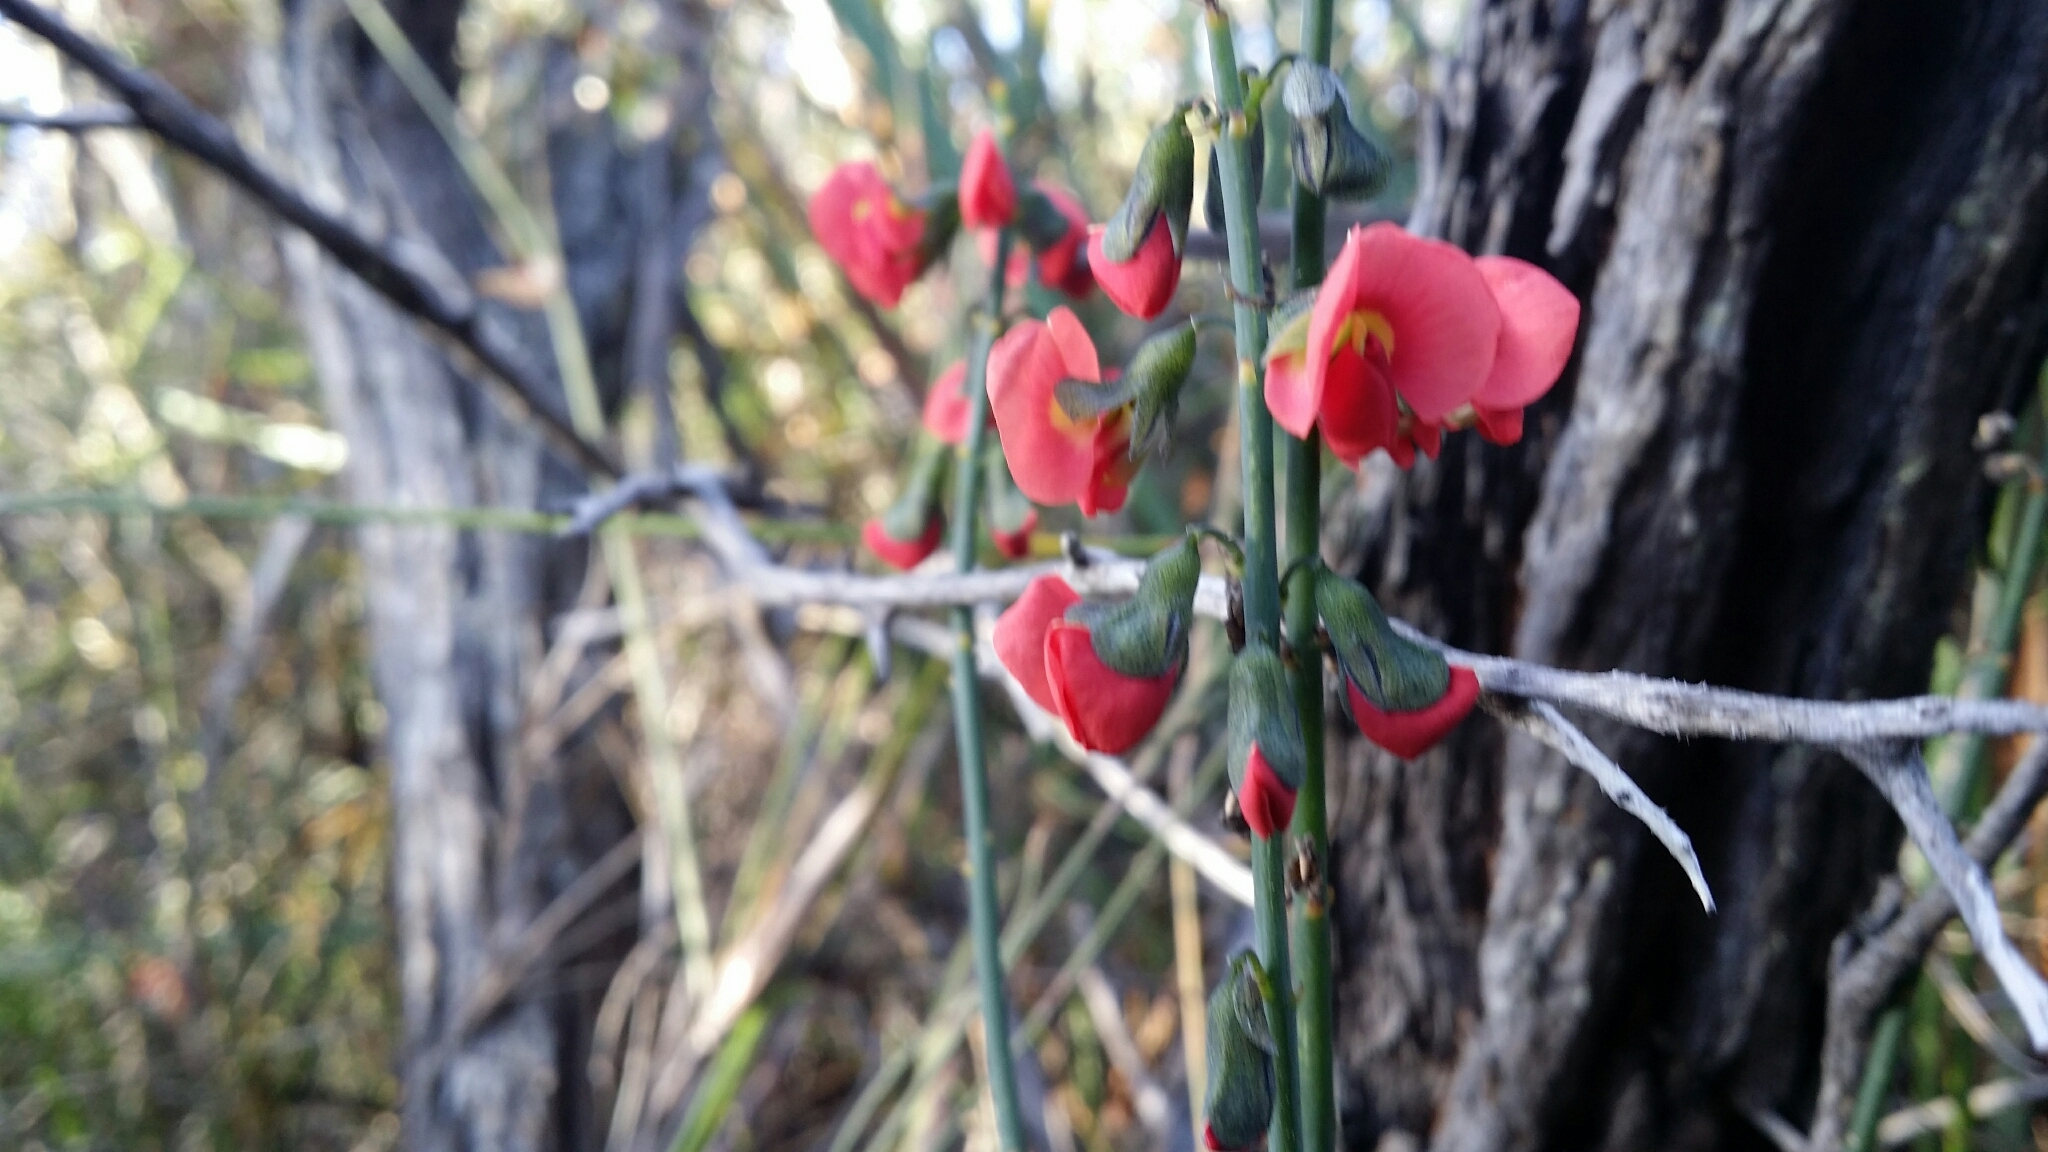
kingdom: Plantae
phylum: Tracheophyta
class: Magnoliopsida
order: Fabales
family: Fabaceae
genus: Sphaerolobium
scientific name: Sphaerolobium grandiflorum
